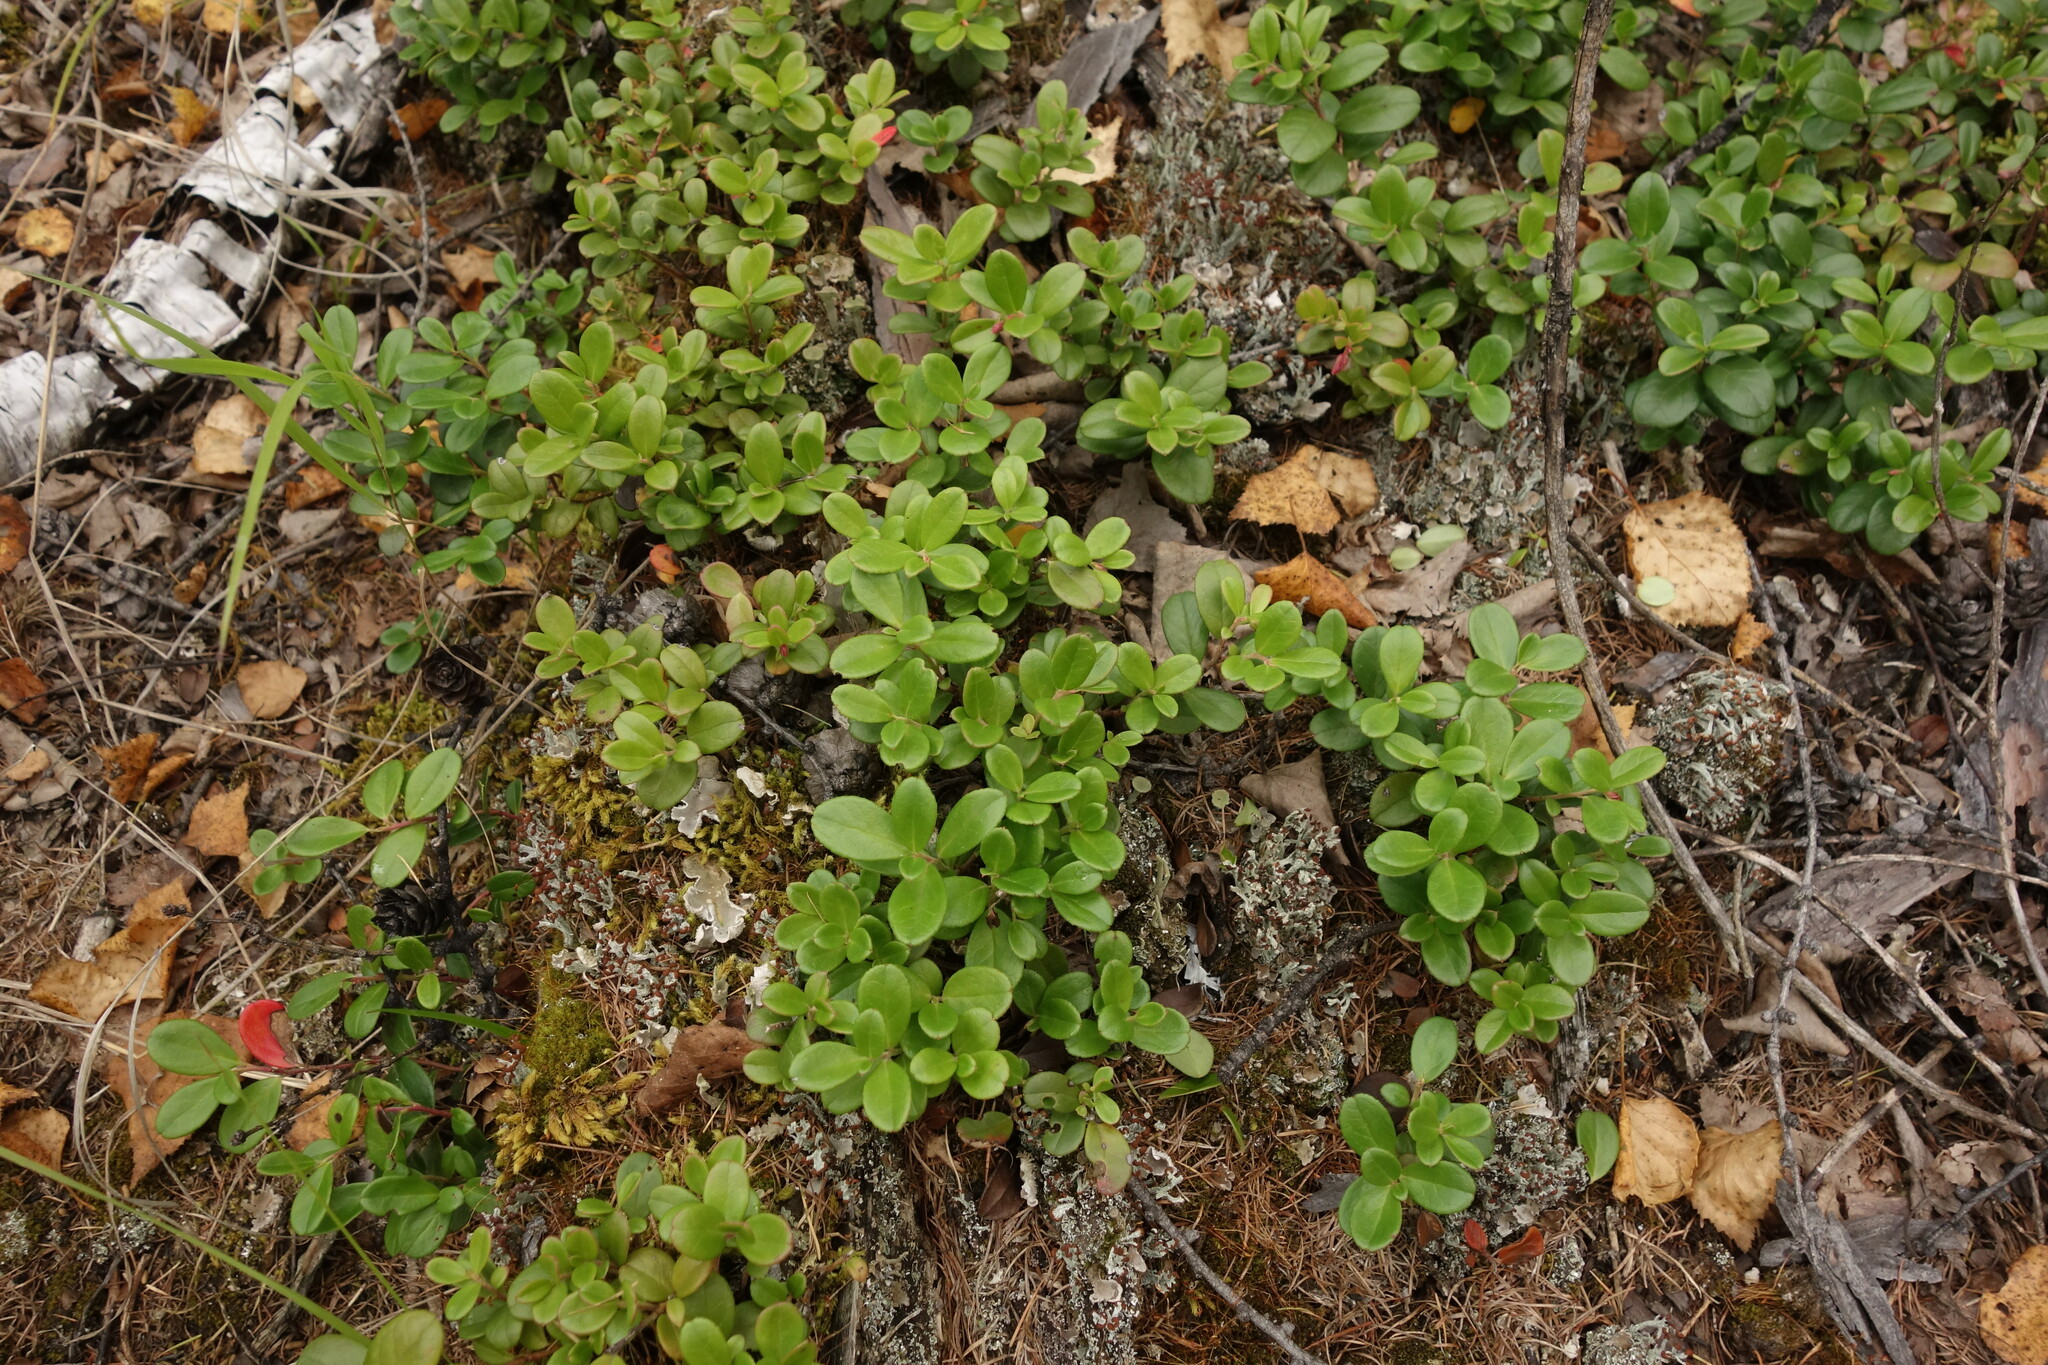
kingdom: Plantae
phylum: Tracheophyta
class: Magnoliopsida
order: Ericales
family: Ericaceae
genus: Vaccinium
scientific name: Vaccinium vitis-idaea
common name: Cowberry
